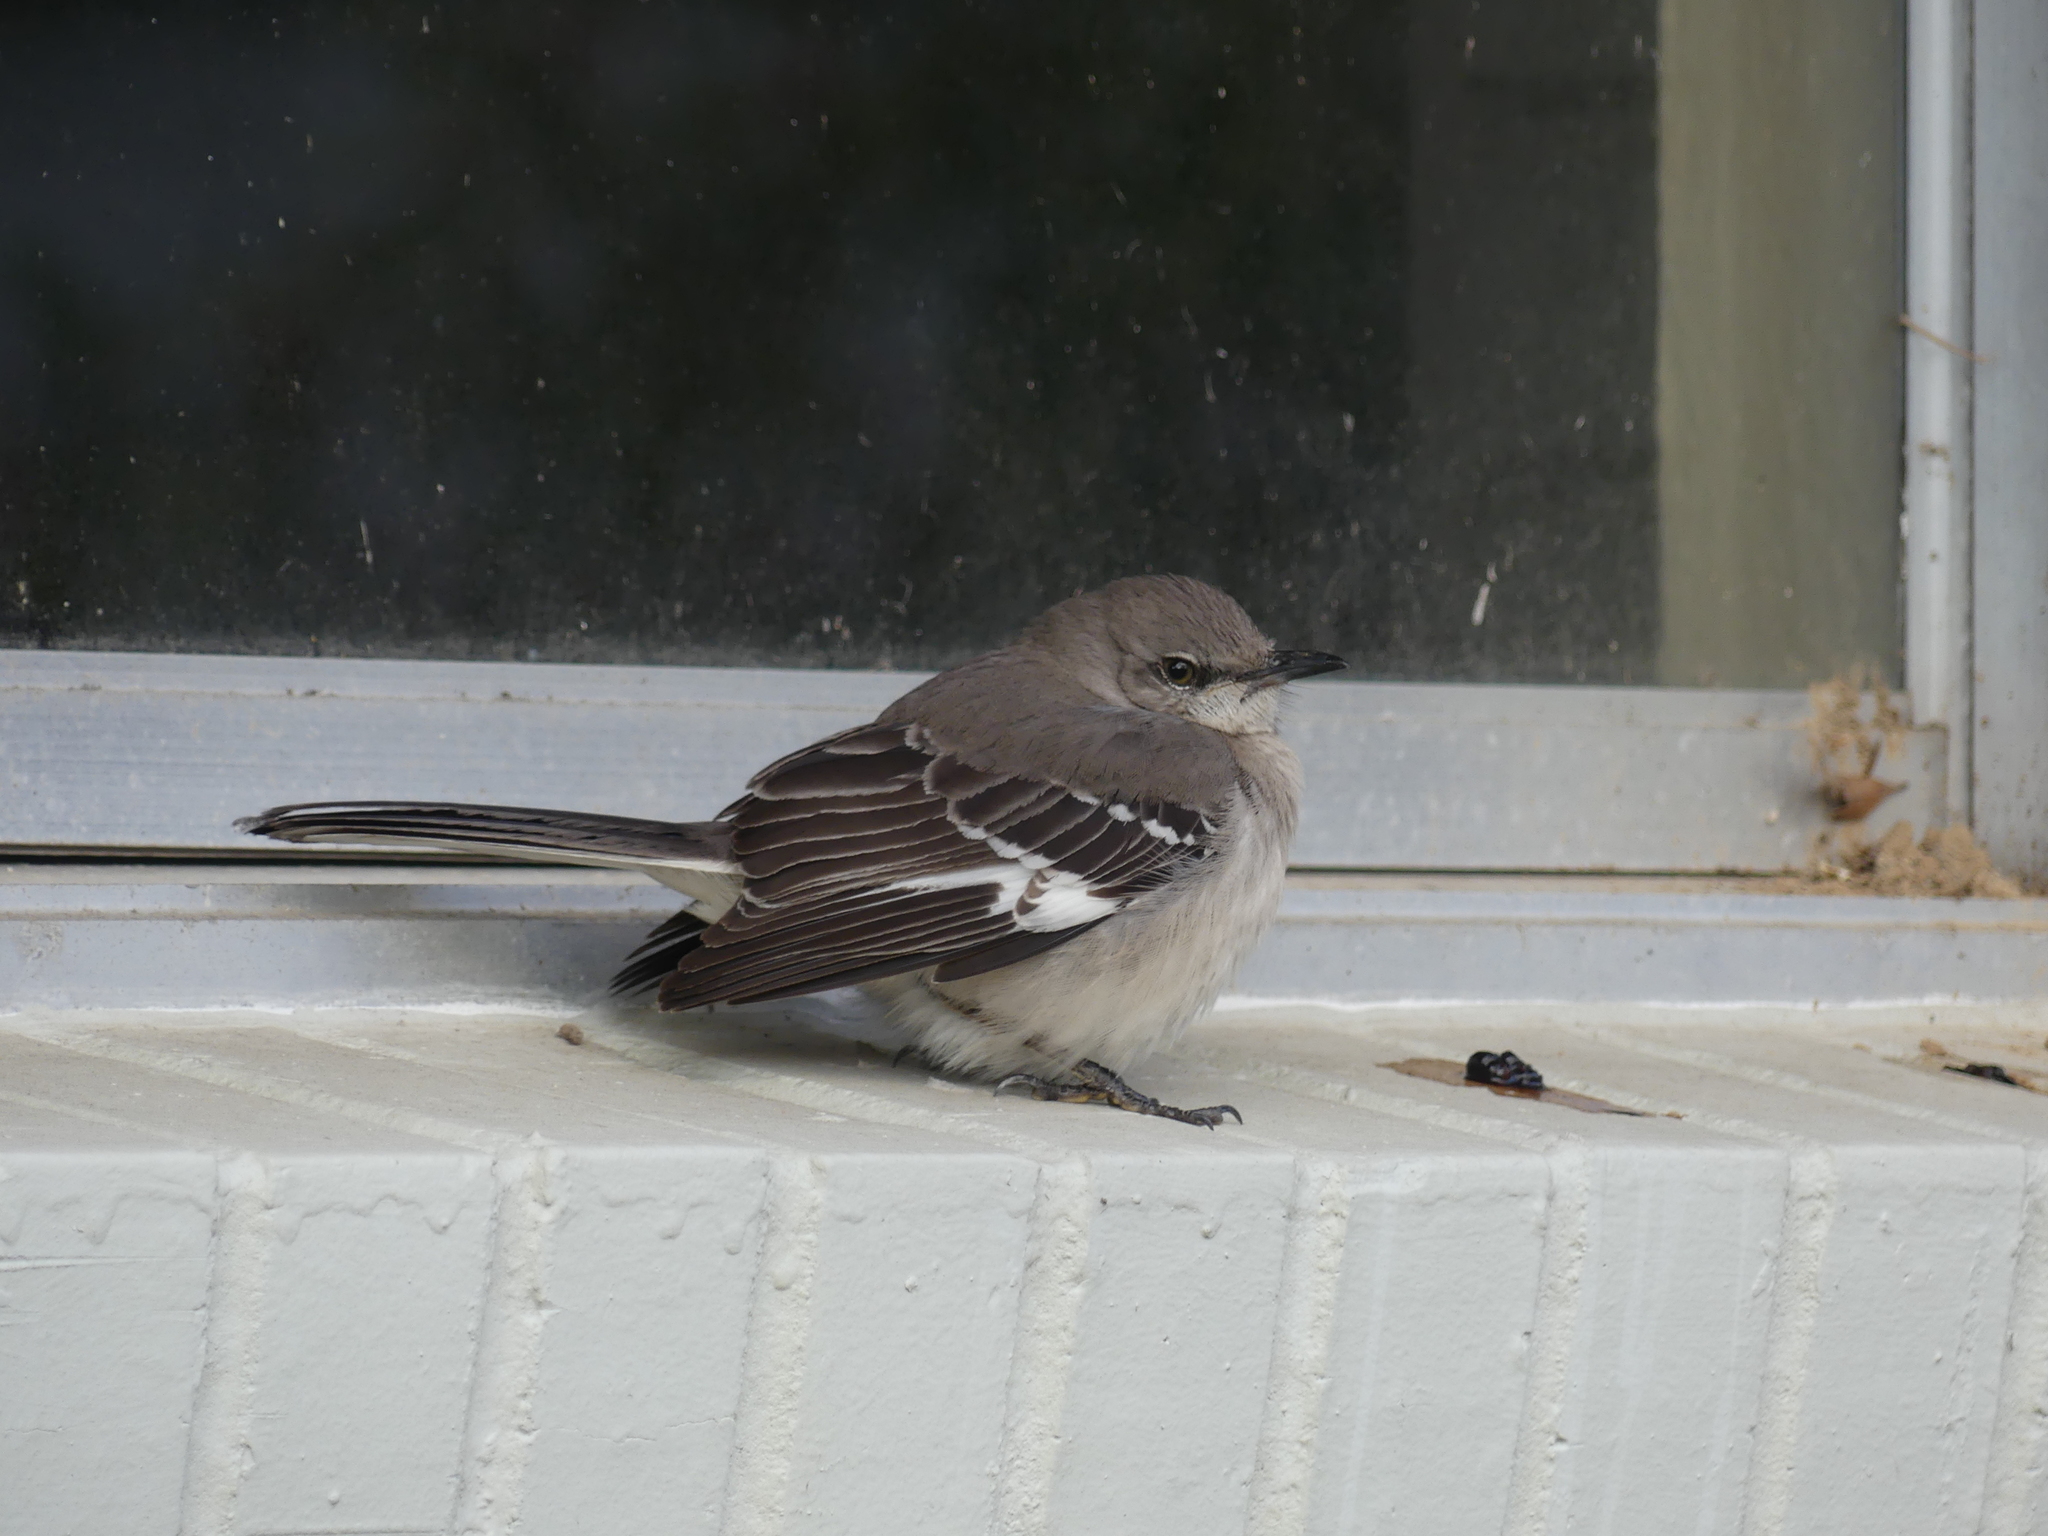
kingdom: Animalia
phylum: Chordata
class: Aves
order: Passeriformes
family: Mimidae
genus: Mimus
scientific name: Mimus polyglottos
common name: Northern mockingbird
